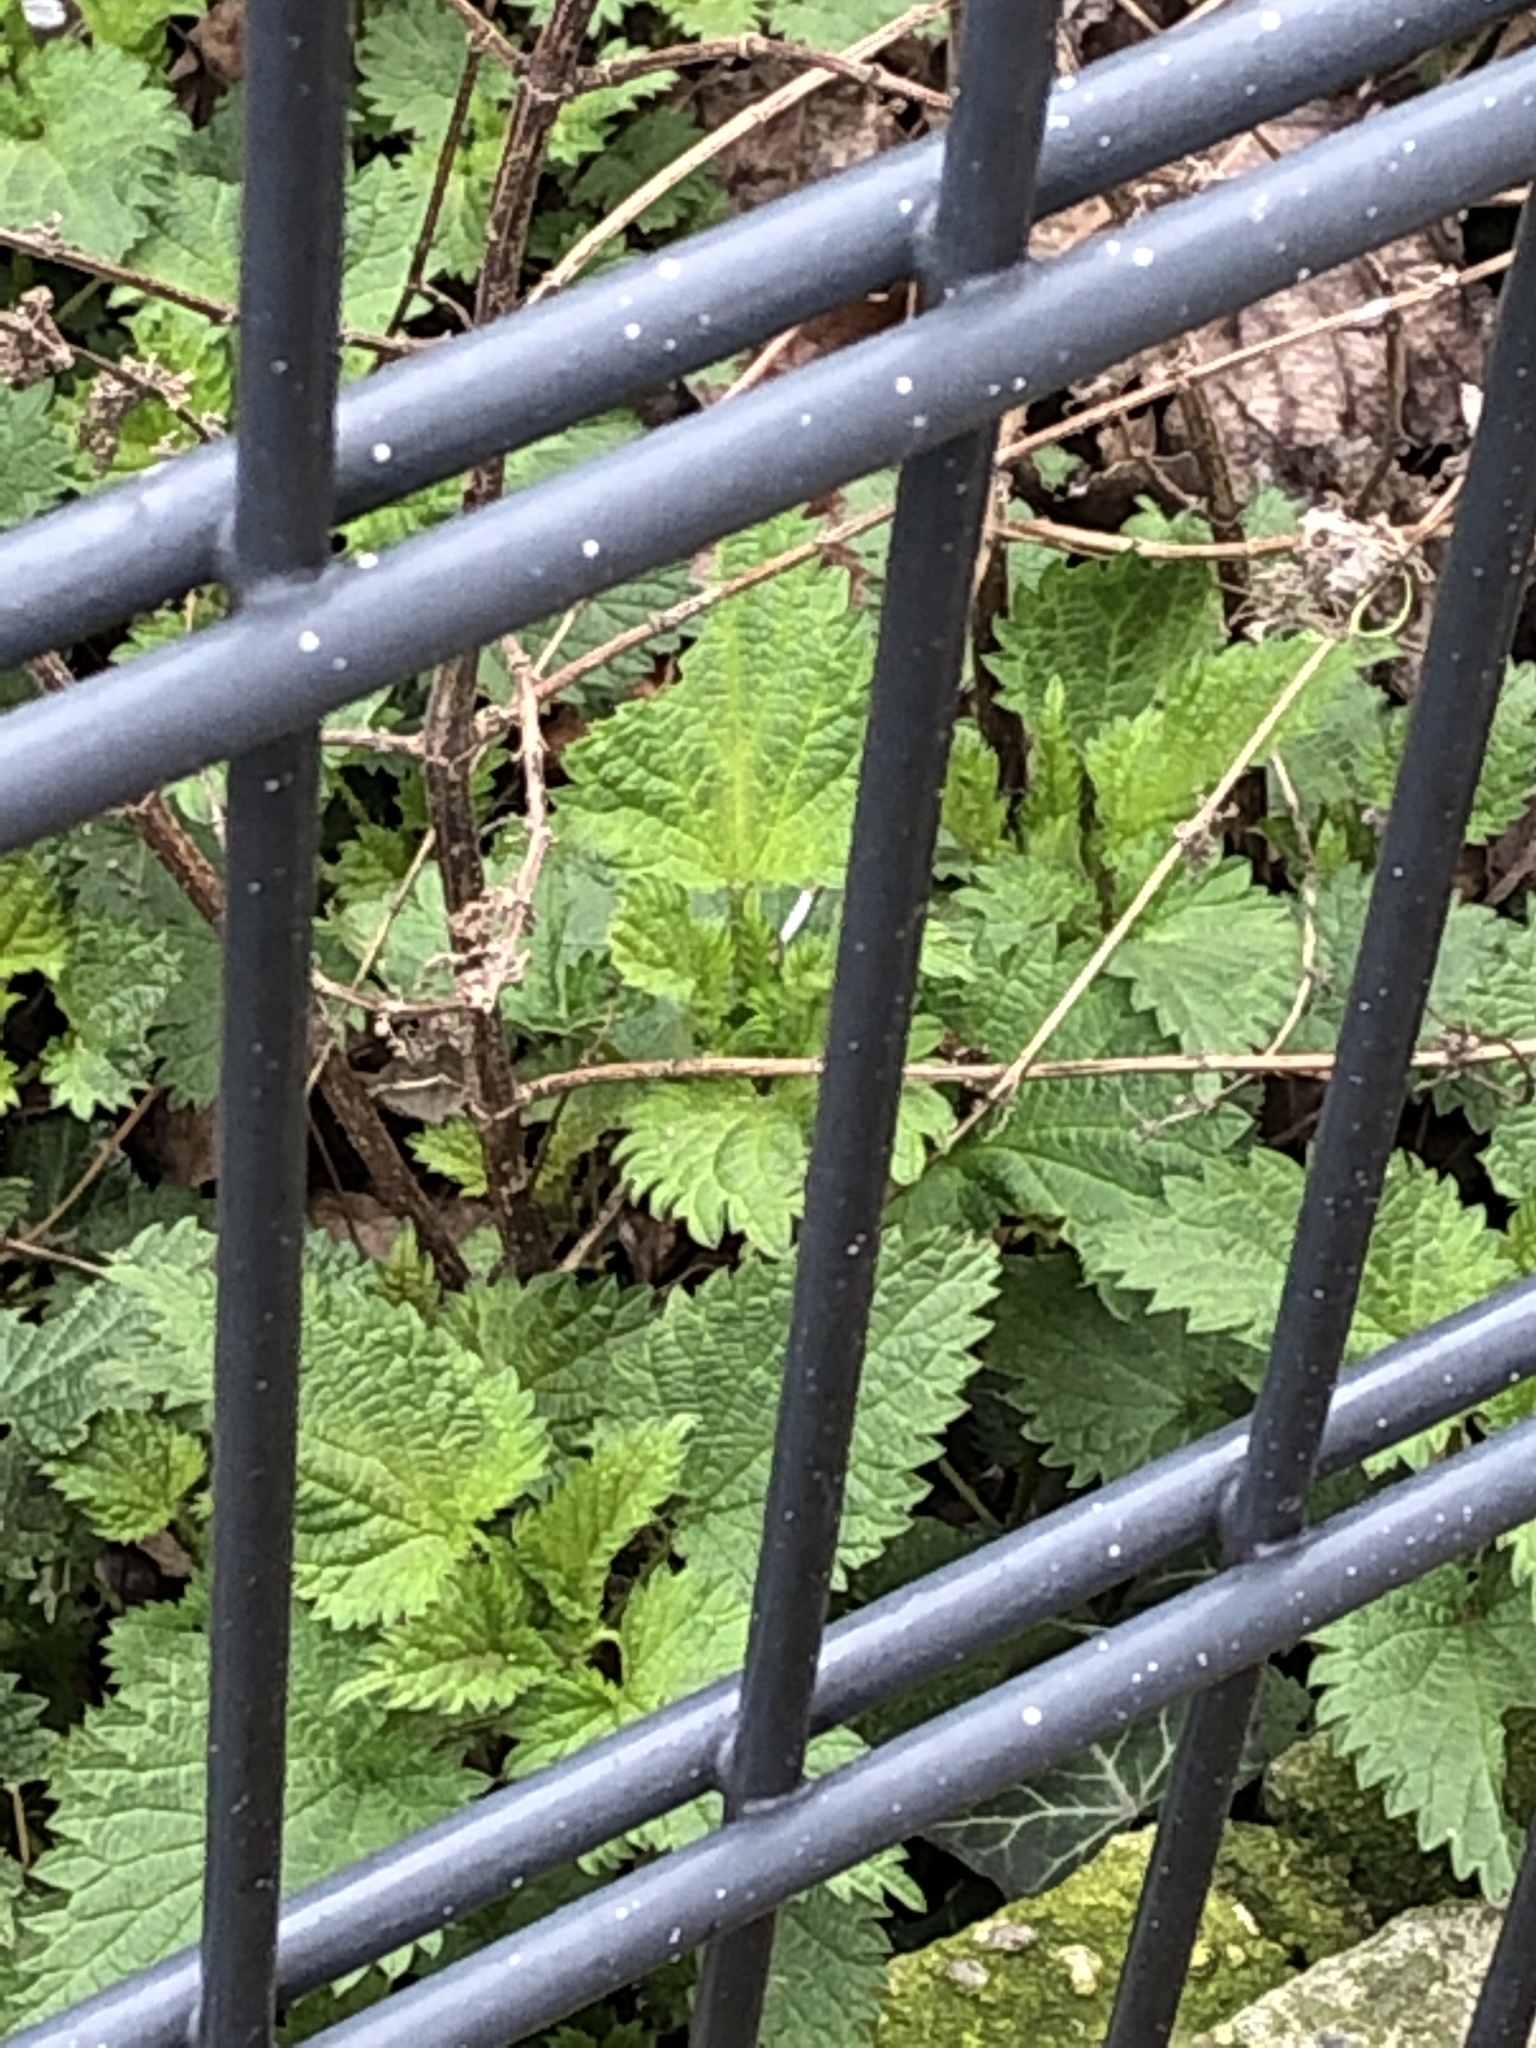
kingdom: Plantae
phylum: Tracheophyta
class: Magnoliopsida
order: Rosales
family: Urticaceae
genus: Urtica
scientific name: Urtica dioica
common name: Common nettle
